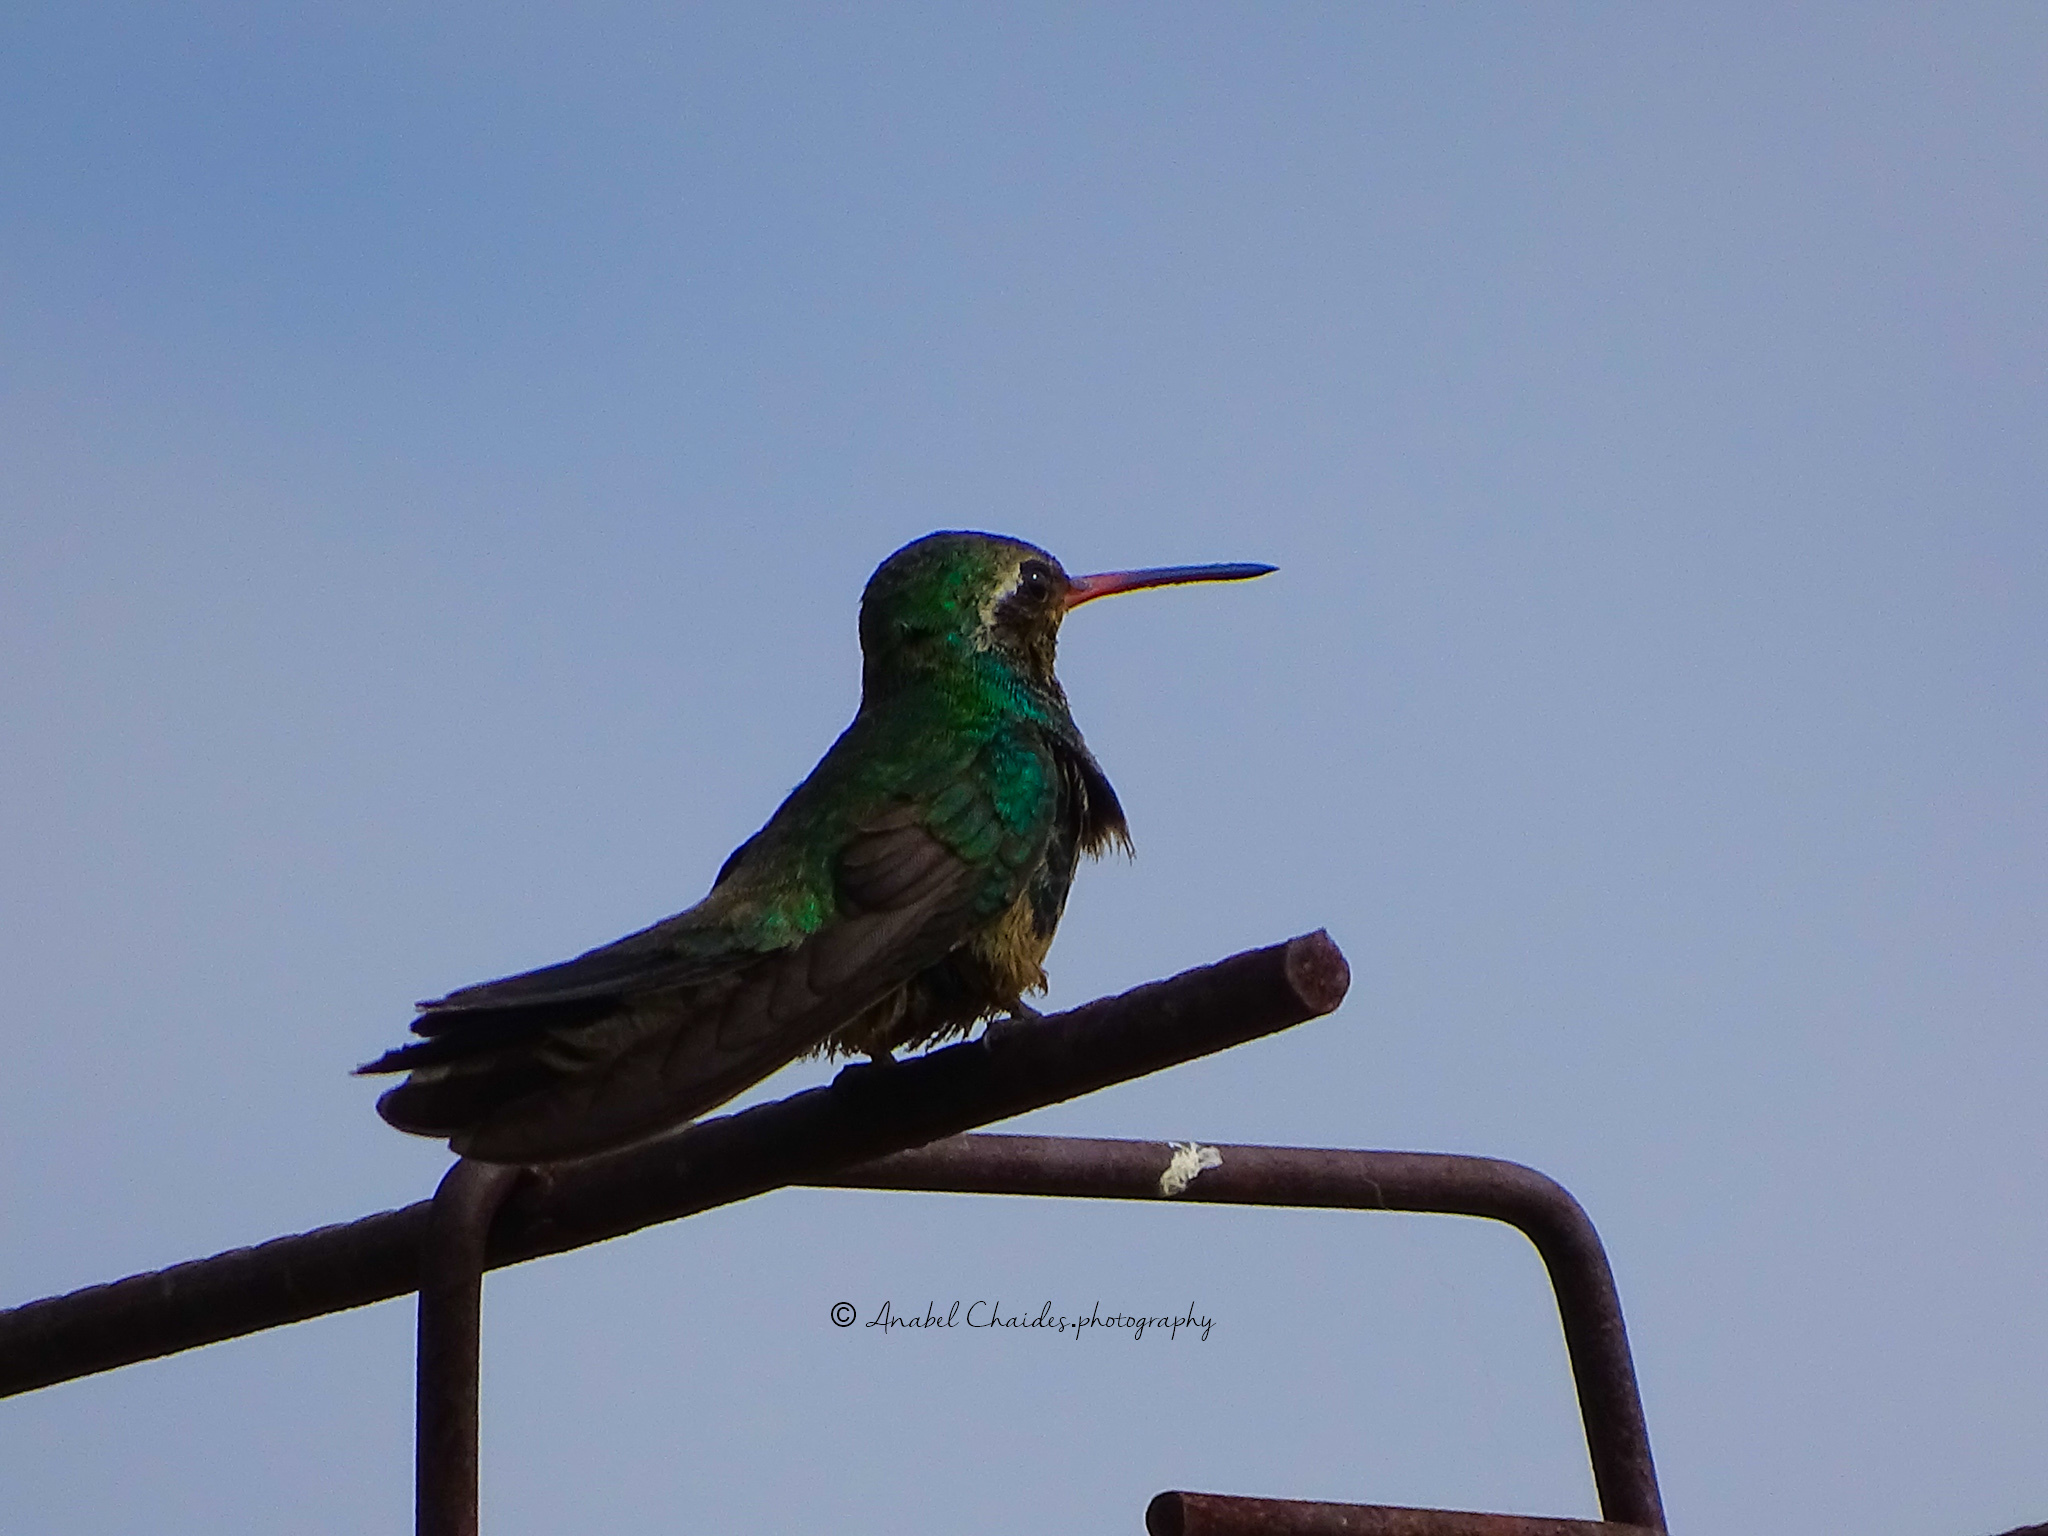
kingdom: Animalia
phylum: Chordata
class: Aves
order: Apodiformes
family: Trochilidae
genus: Cynanthus
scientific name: Cynanthus latirostris
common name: Broad-billed hummingbird
